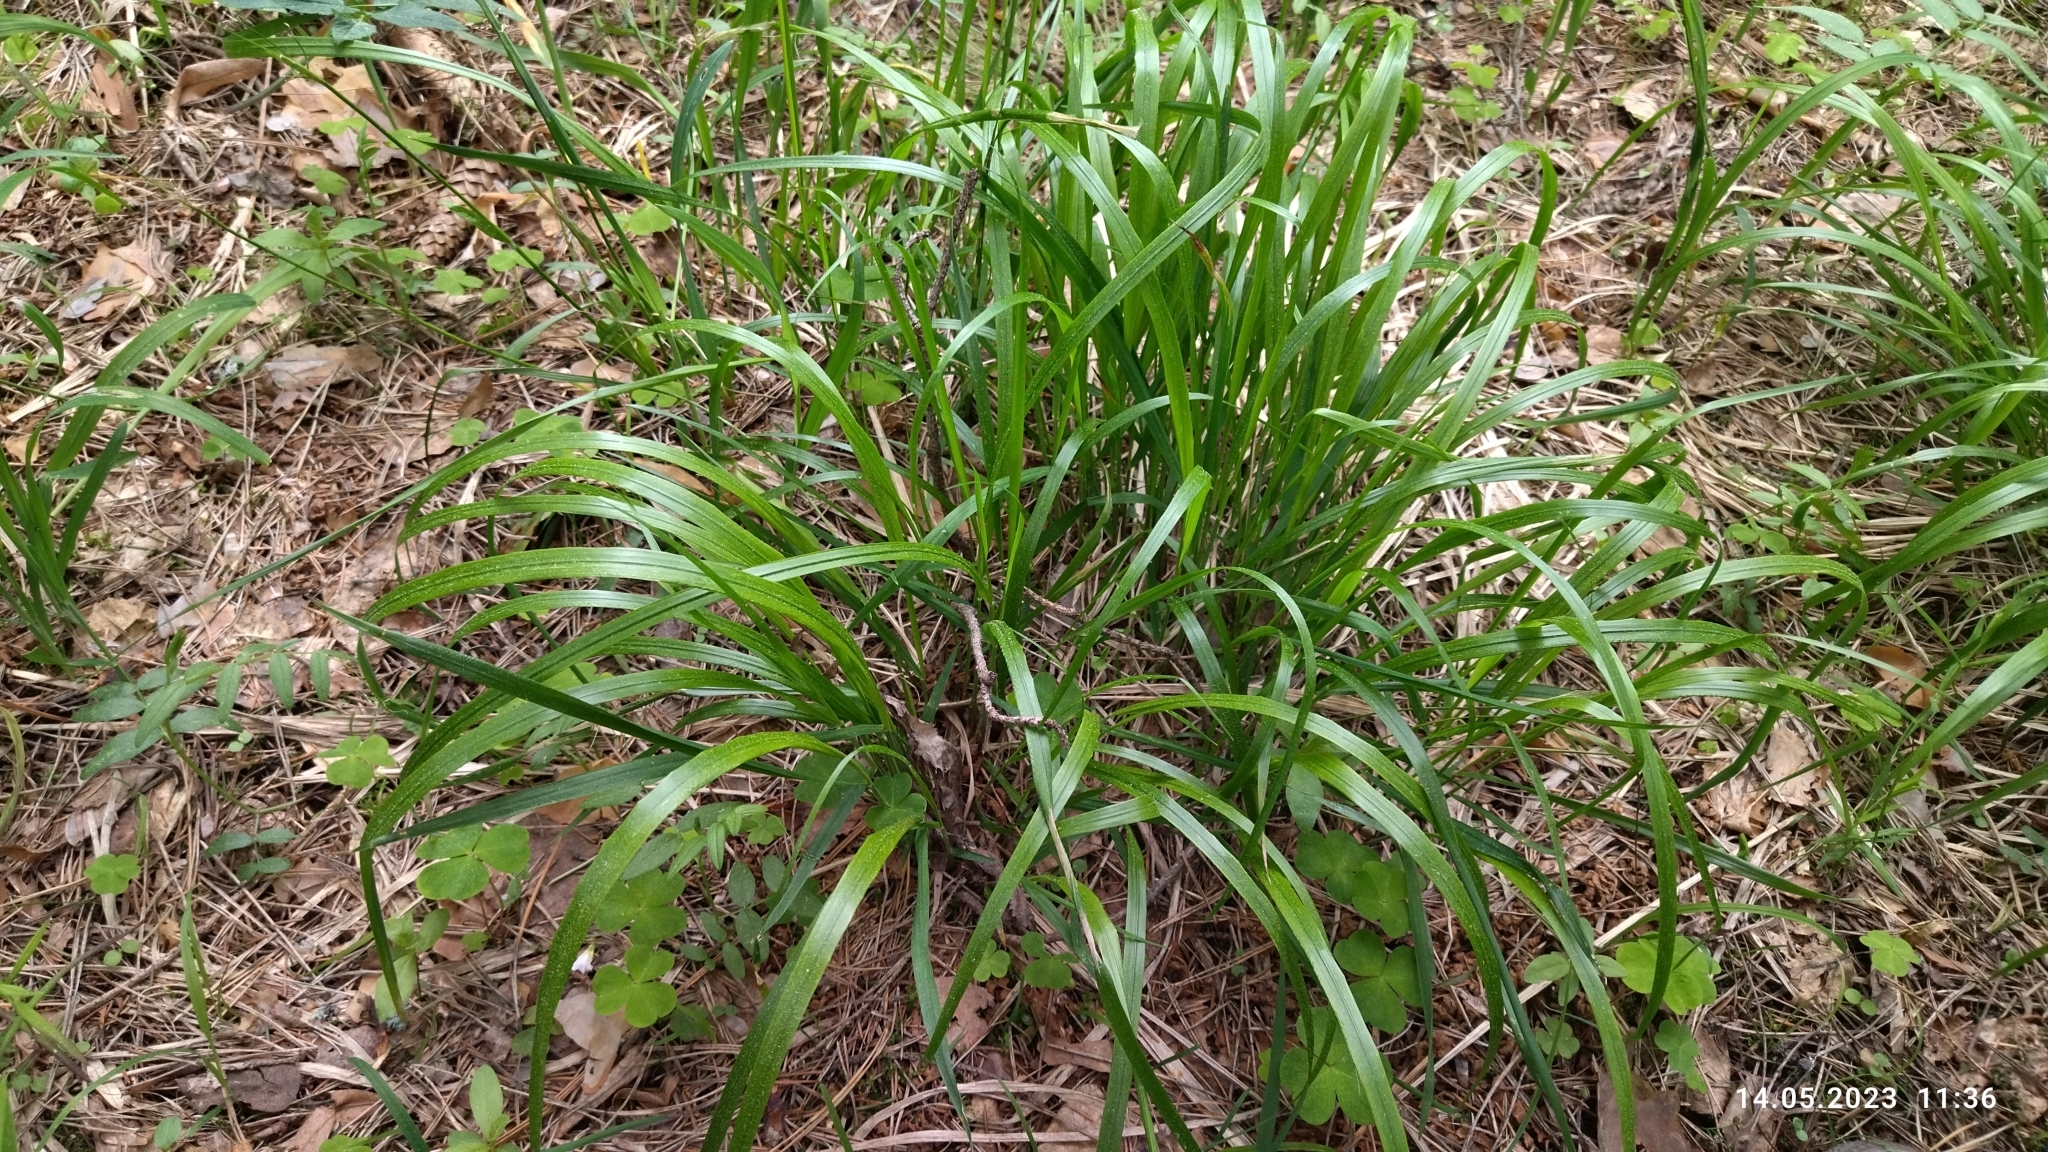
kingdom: Plantae
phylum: Tracheophyta
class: Liliopsida
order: Poales
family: Poaceae
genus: Calamagrostis
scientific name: Calamagrostis arundinacea
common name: Metskastik
